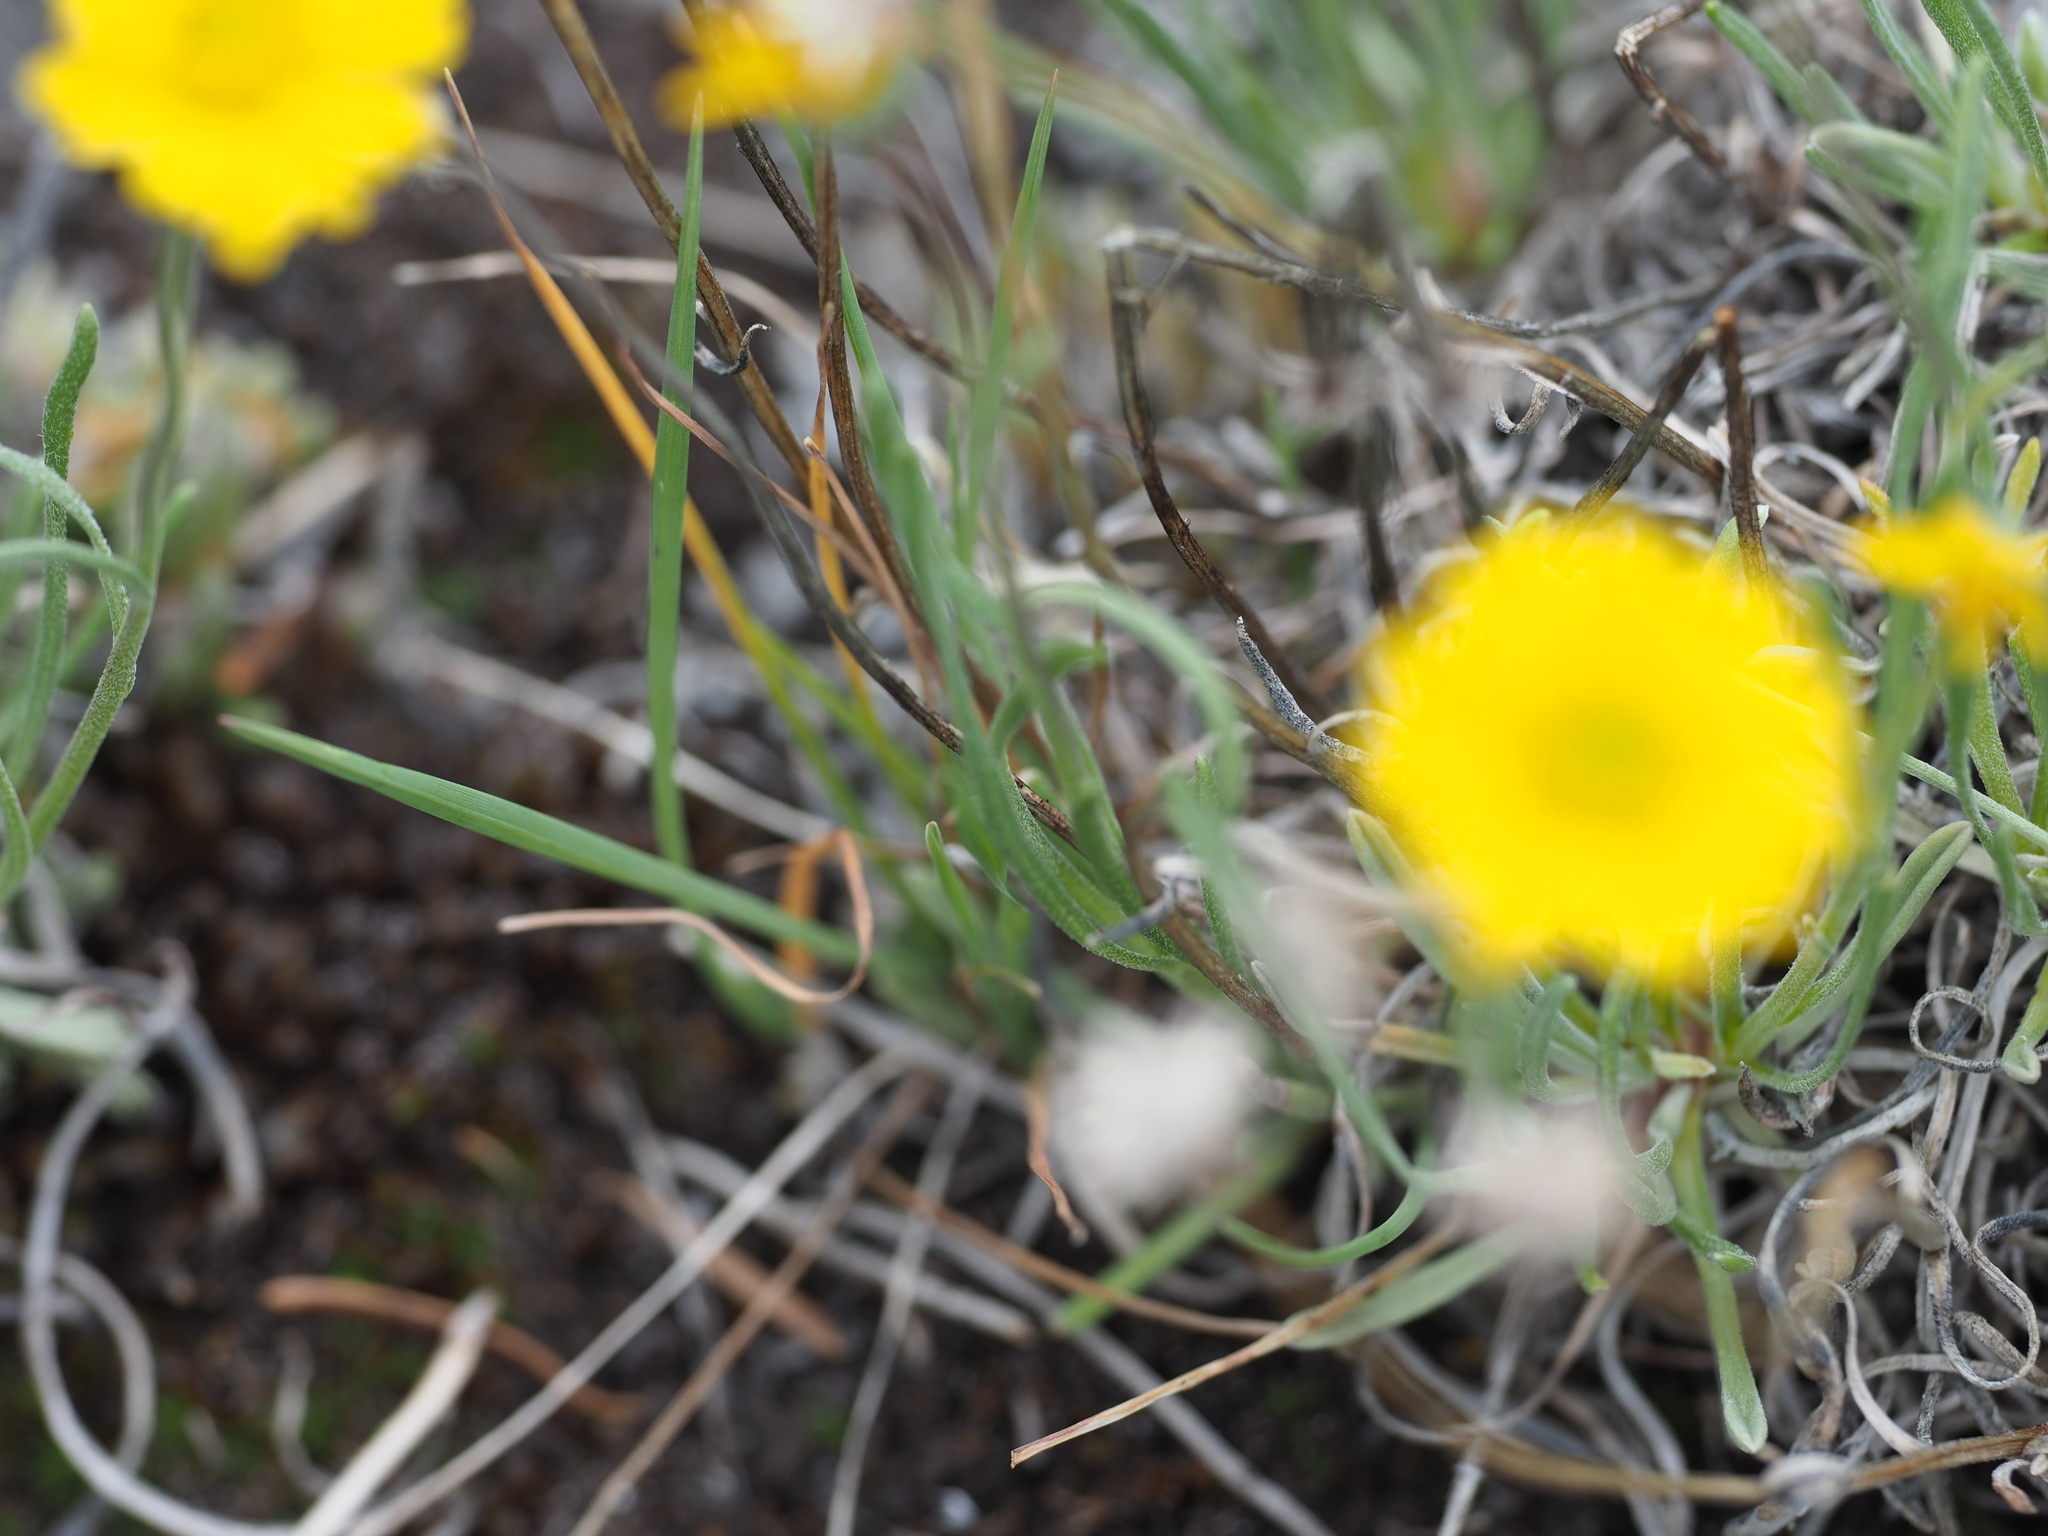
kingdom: Plantae
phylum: Tracheophyta
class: Magnoliopsida
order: Asterales
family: Asteraceae
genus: Erigeron
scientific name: Erigeron linearis
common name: Desert yellow fleabane
